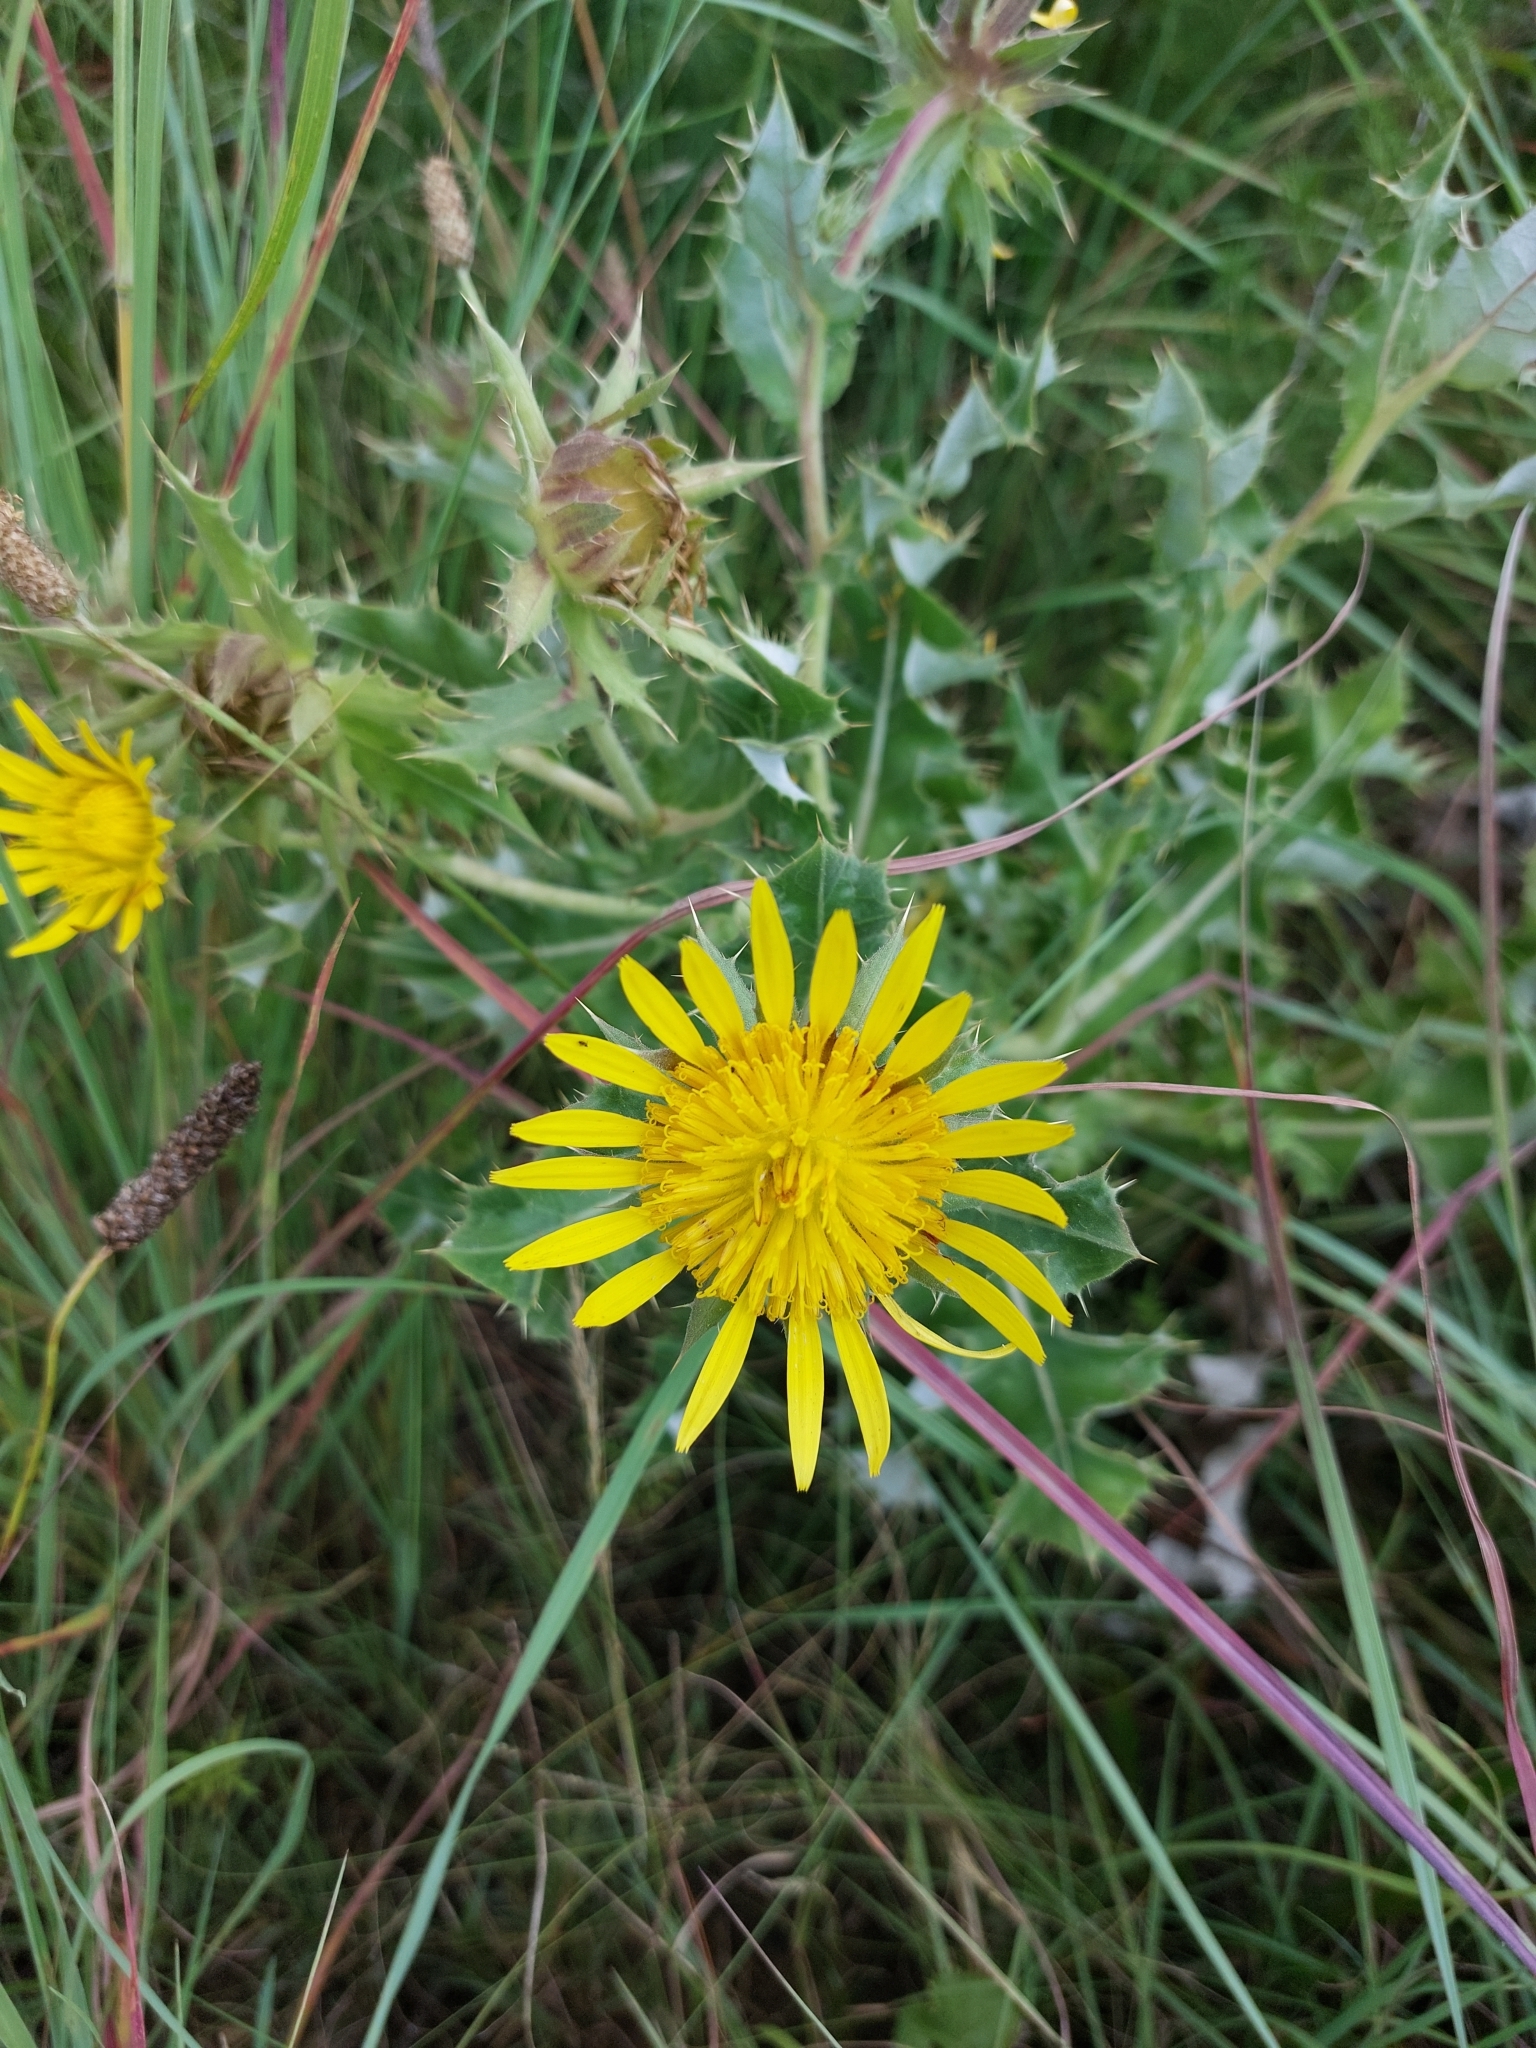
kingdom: Plantae
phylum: Tracheophyta
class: Magnoliopsida
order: Asterales
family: Asteraceae
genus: Berkheya
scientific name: Berkheya onopordifolia
